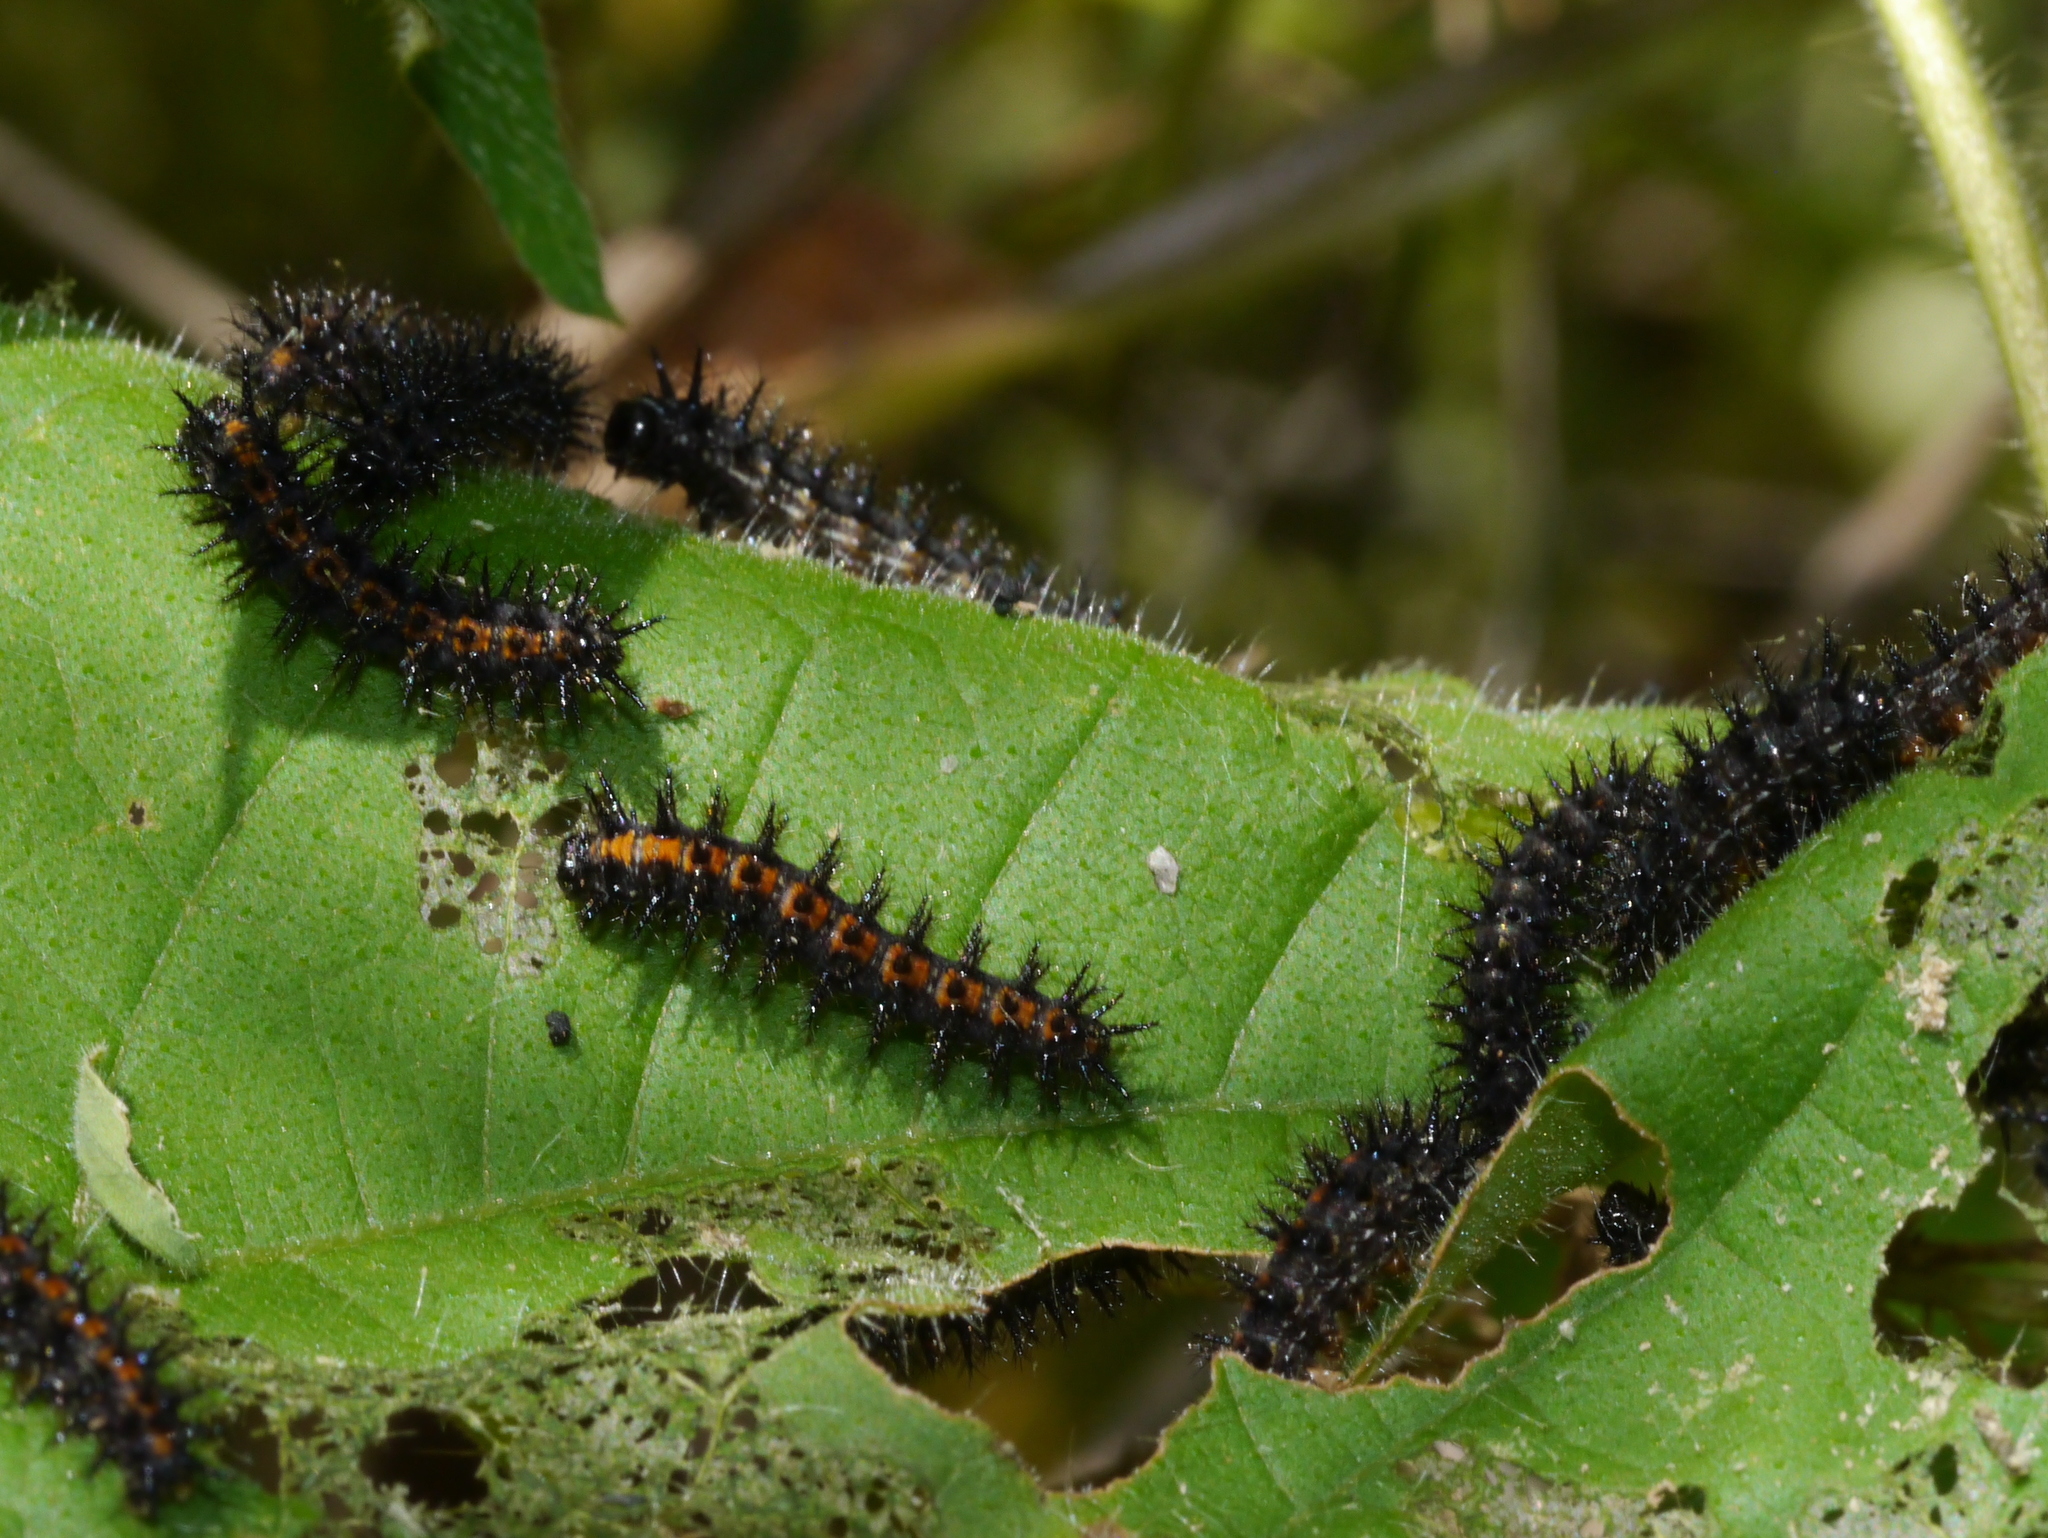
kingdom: Animalia
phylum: Arthropoda
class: Insecta
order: Lepidoptera
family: Nymphalidae
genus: Chlosyne
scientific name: Chlosyne lacinia
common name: Bordered patch
